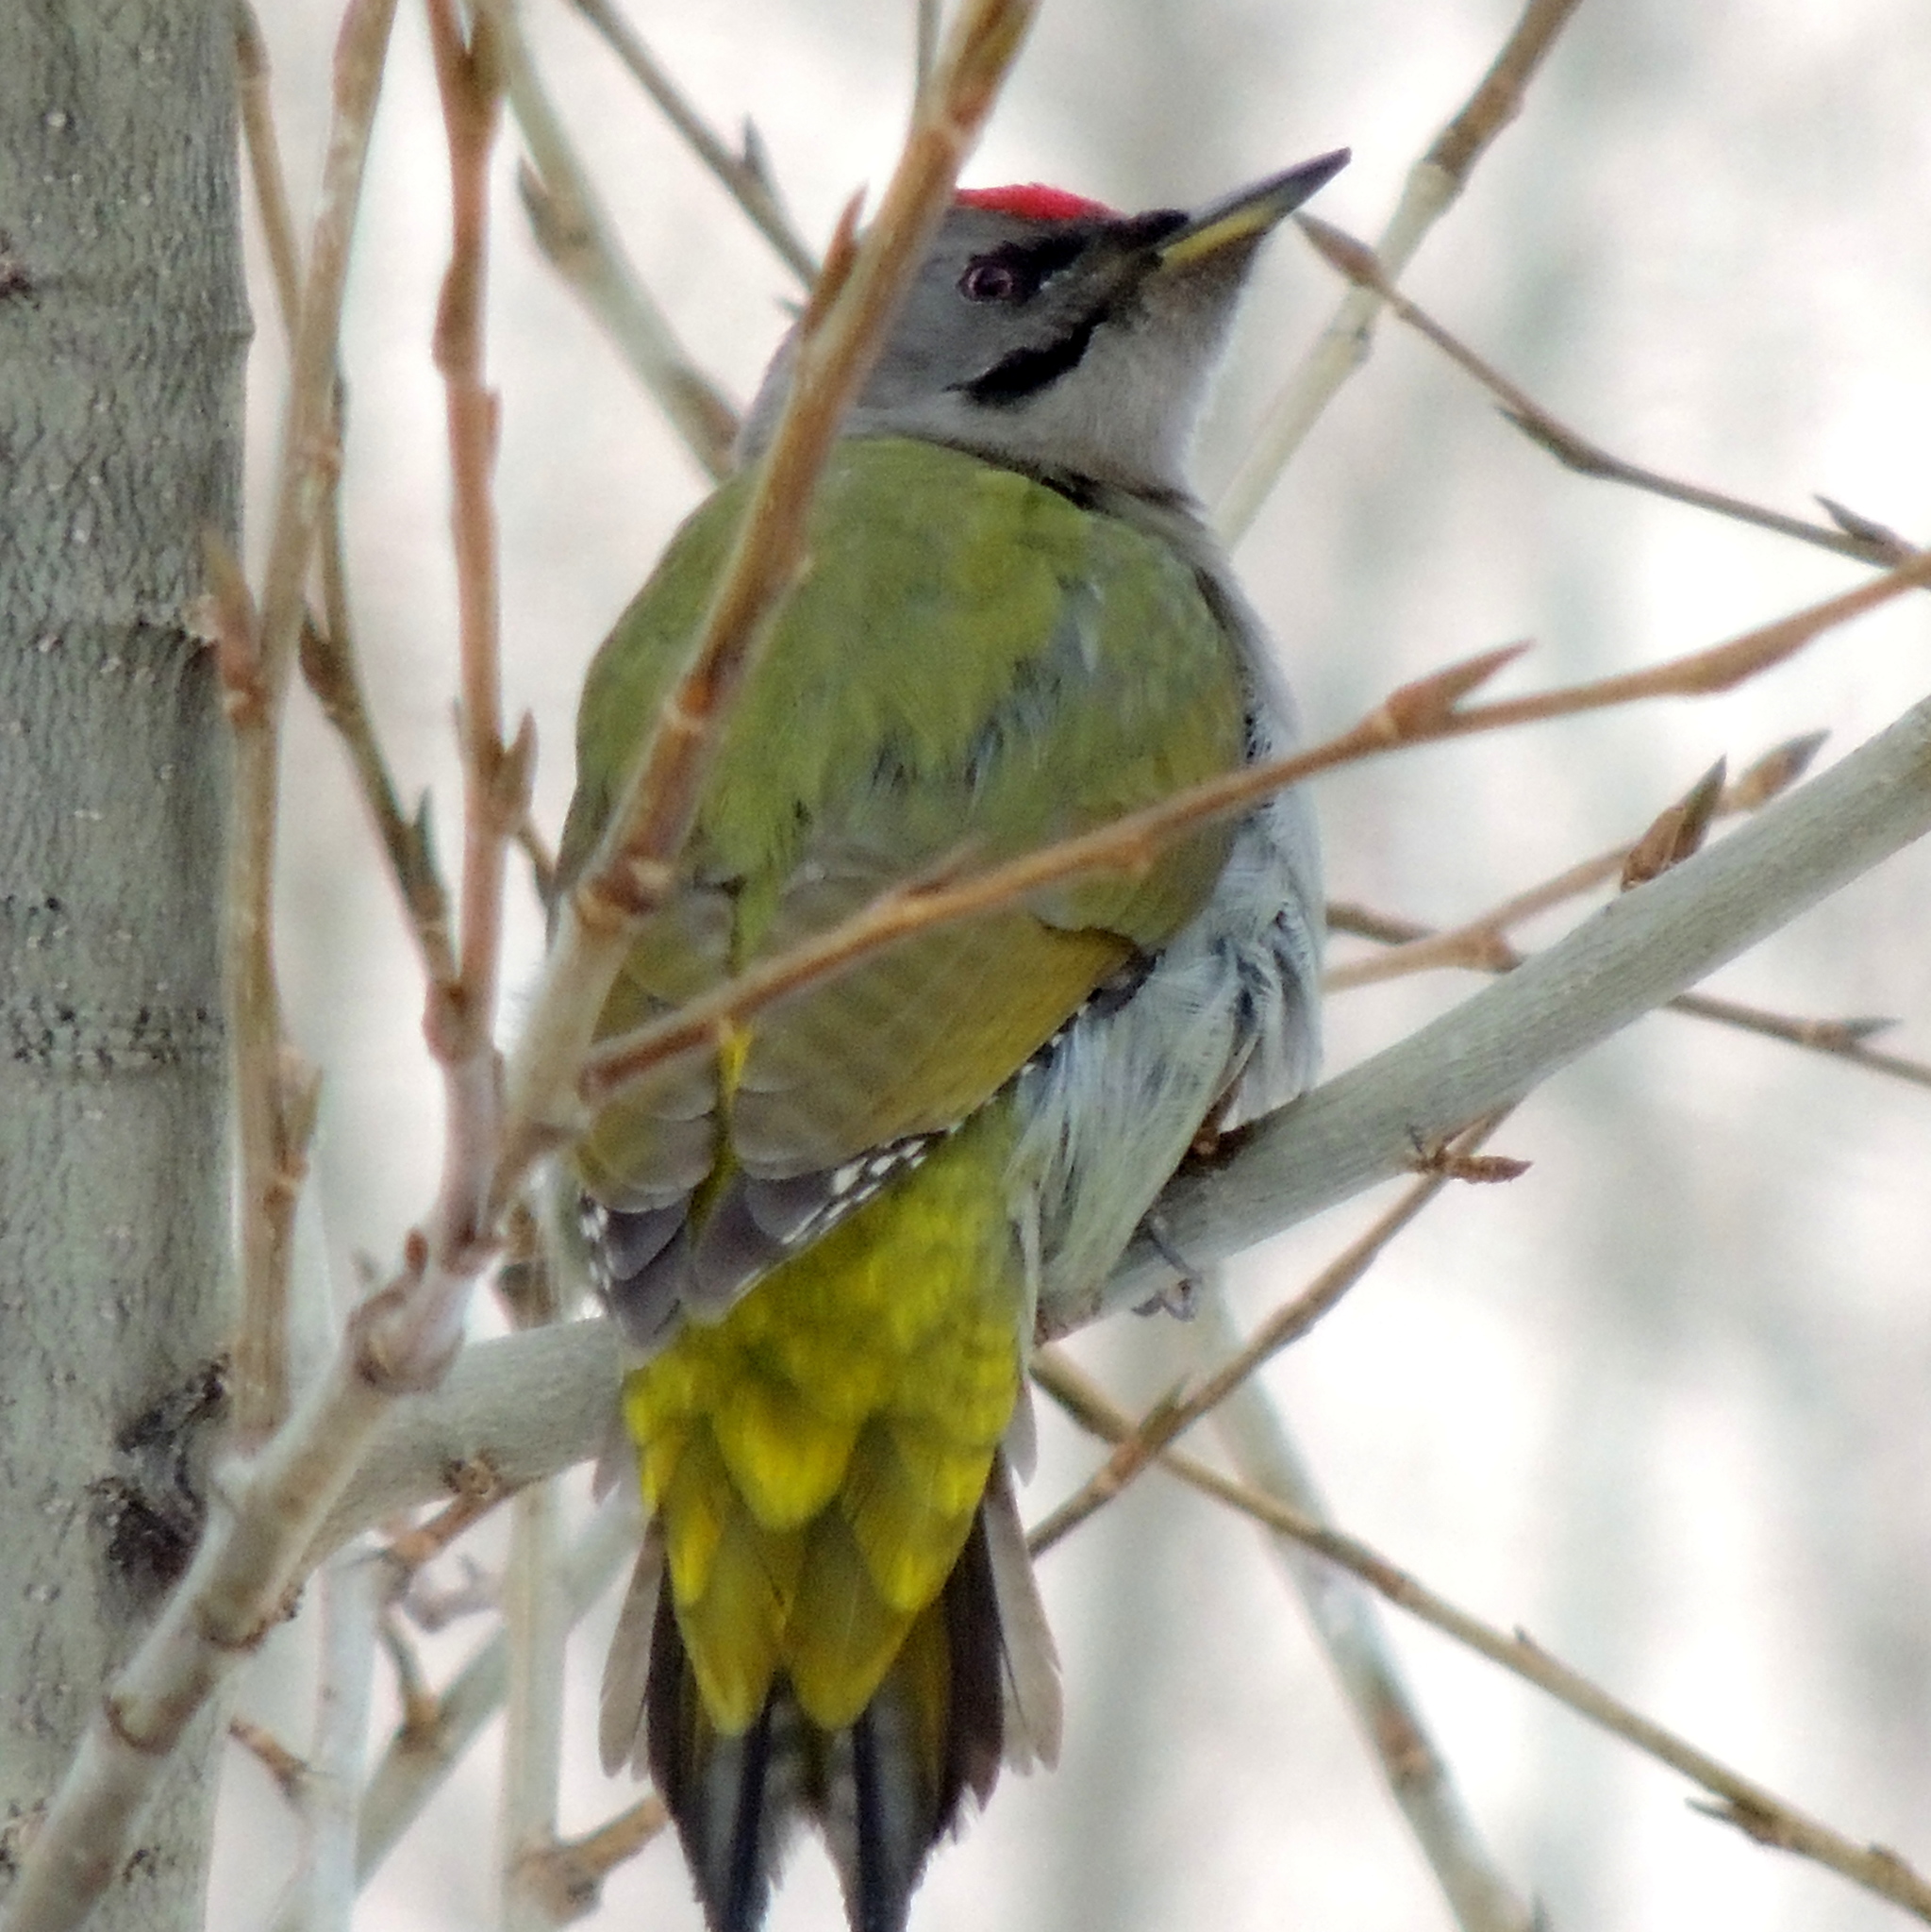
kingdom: Animalia
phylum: Chordata
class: Aves
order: Piciformes
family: Picidae
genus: Picus
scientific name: Picus canus
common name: Grey-headed woodpecker
